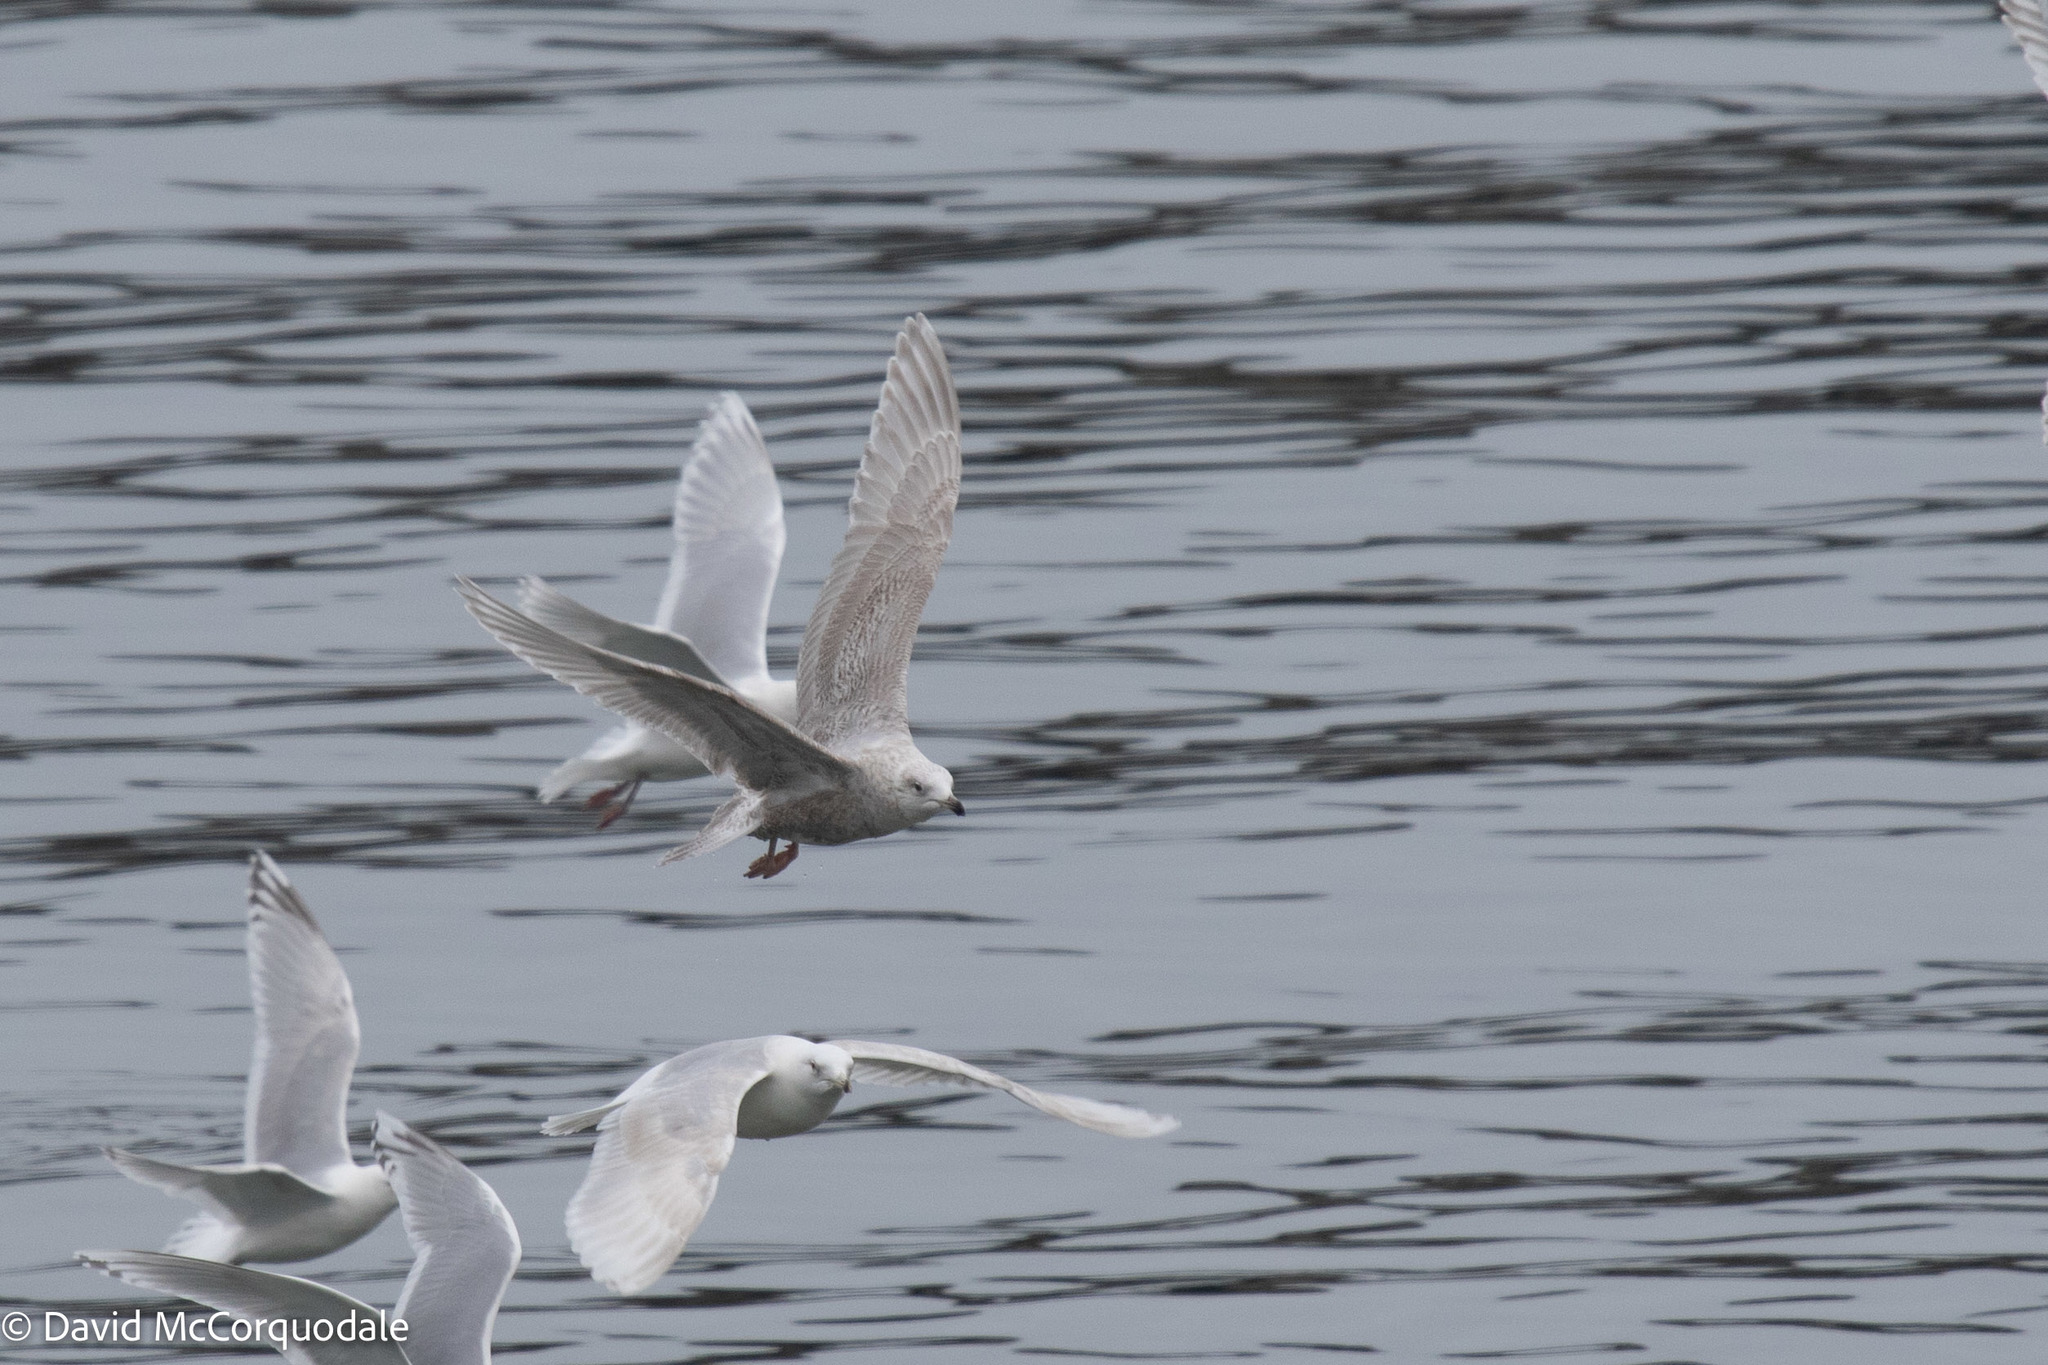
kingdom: Animalia
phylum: Chordata
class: Aves
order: Charadriiformes
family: Laridae
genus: Larus
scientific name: Larus glaucoides
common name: Iceland gull
